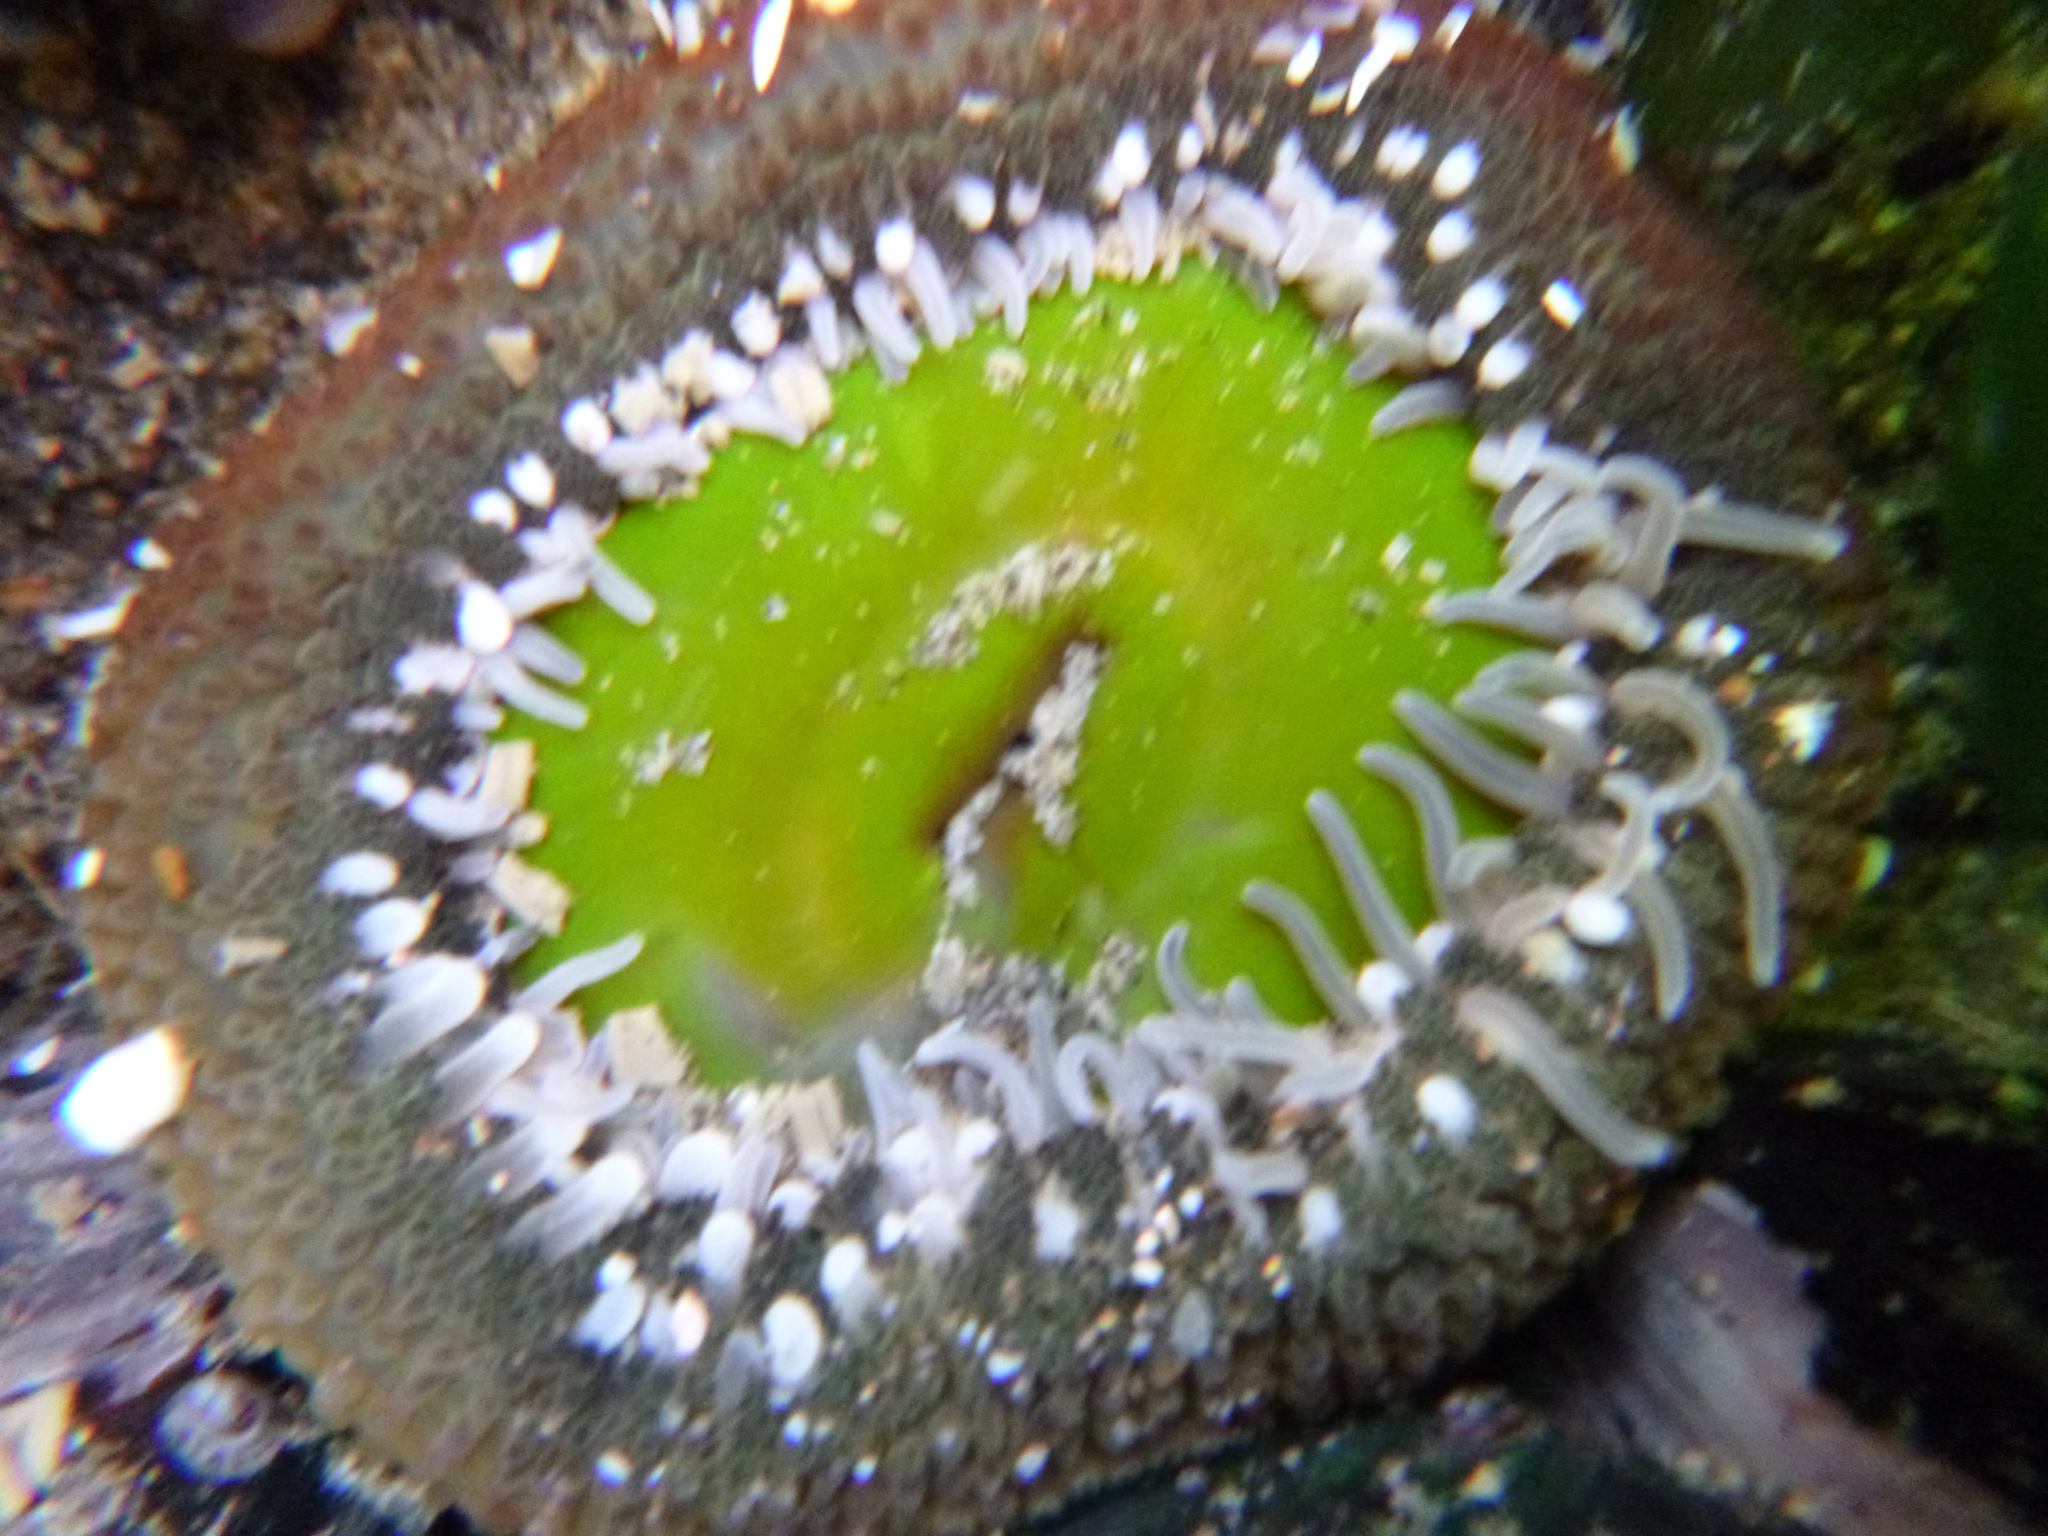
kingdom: Animalia
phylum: Cnidaria
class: Anthozoa
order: Actiniaria
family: Actiniidae
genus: Oulactis
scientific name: Oulactis magna
